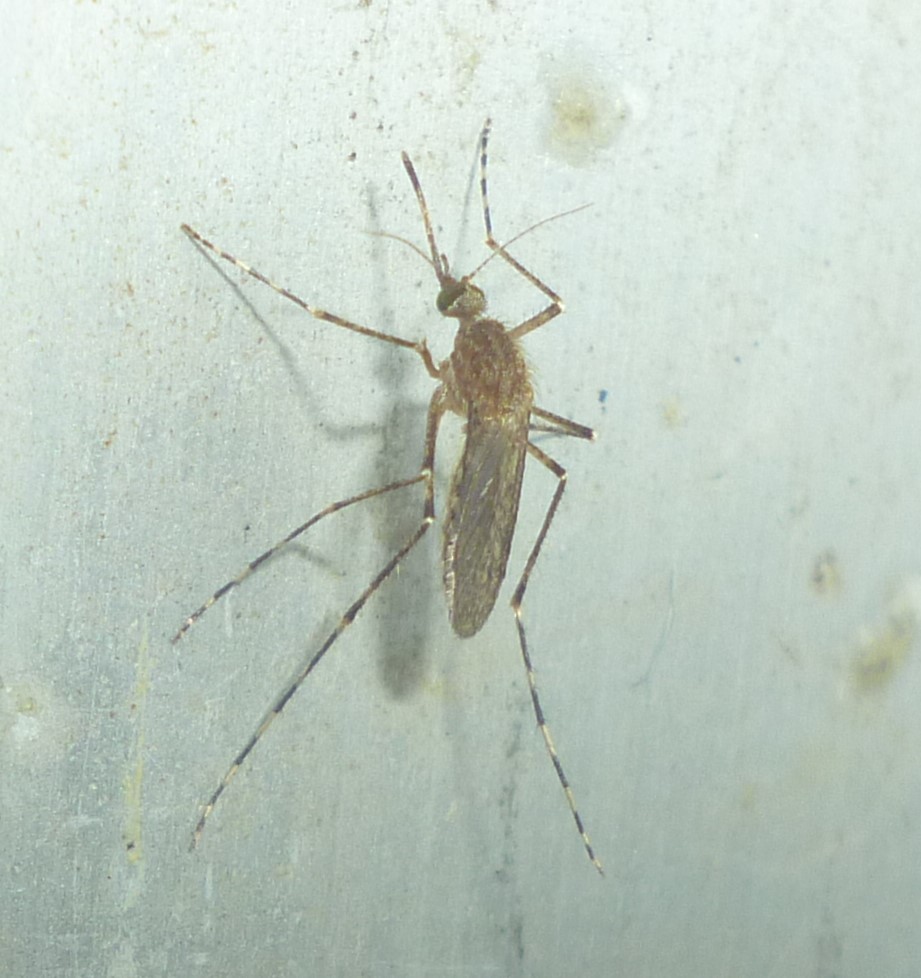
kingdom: Animalia
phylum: Arthropoda
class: Insecta
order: Diptera
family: Culicidae
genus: Coquillettidia
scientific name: Coquillettidia perturbans
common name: Cattail mosquito
